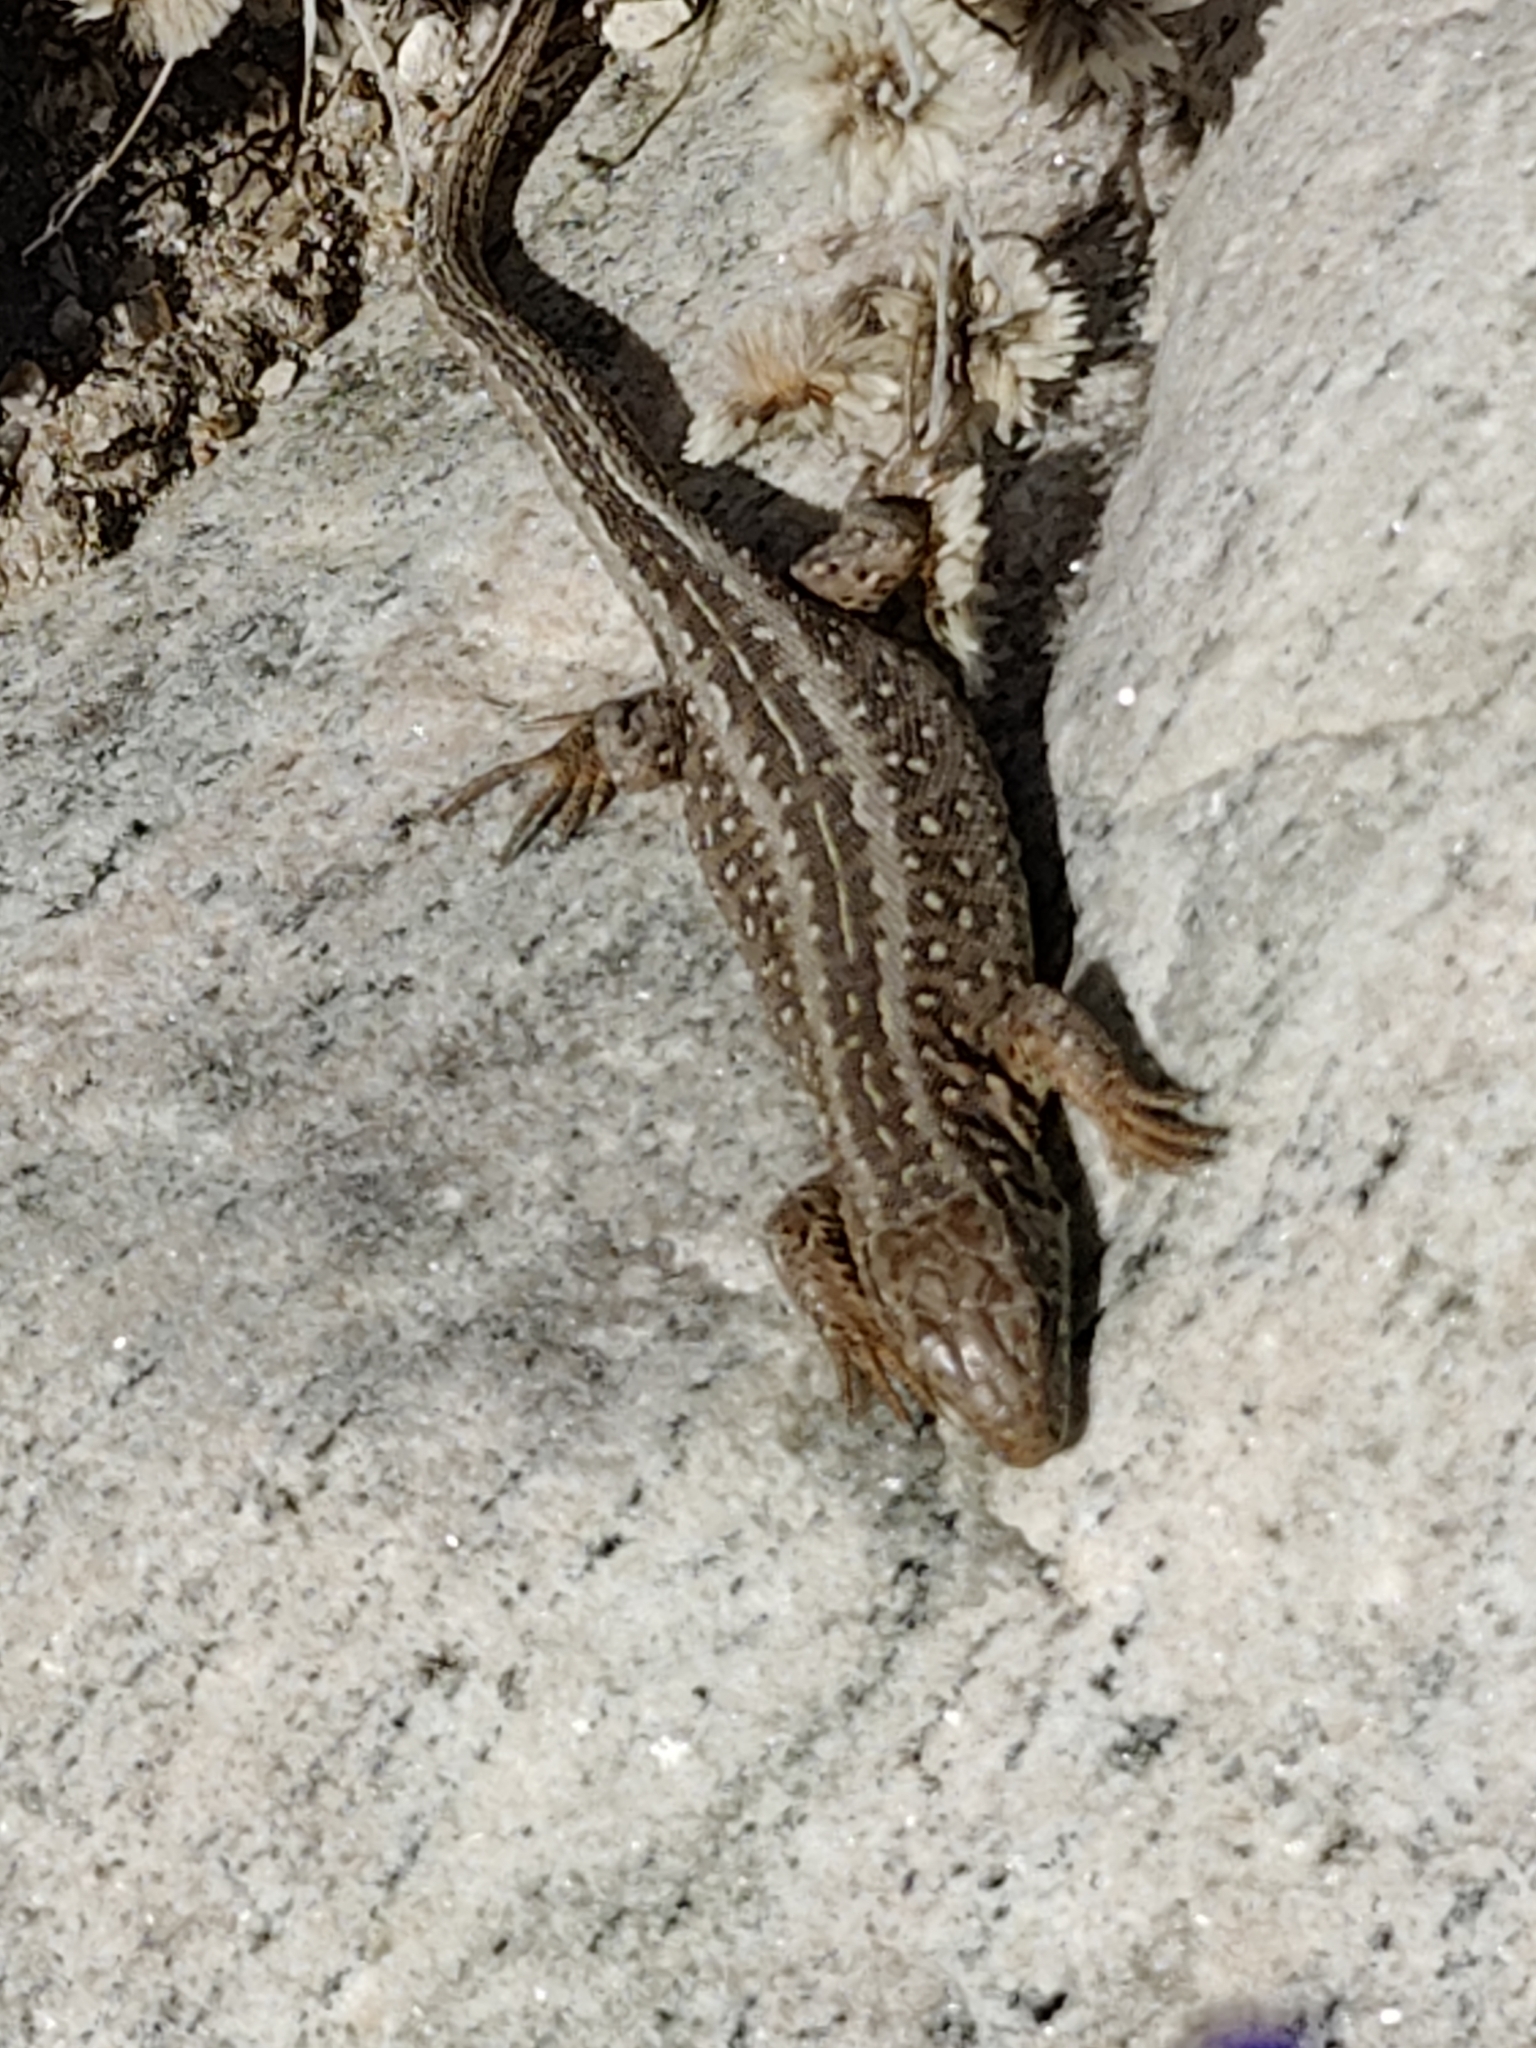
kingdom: Animalia
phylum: Chordata
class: Squamata
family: Lacertidae
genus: Lacerta
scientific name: Lacerta agilis
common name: Sand lizard
